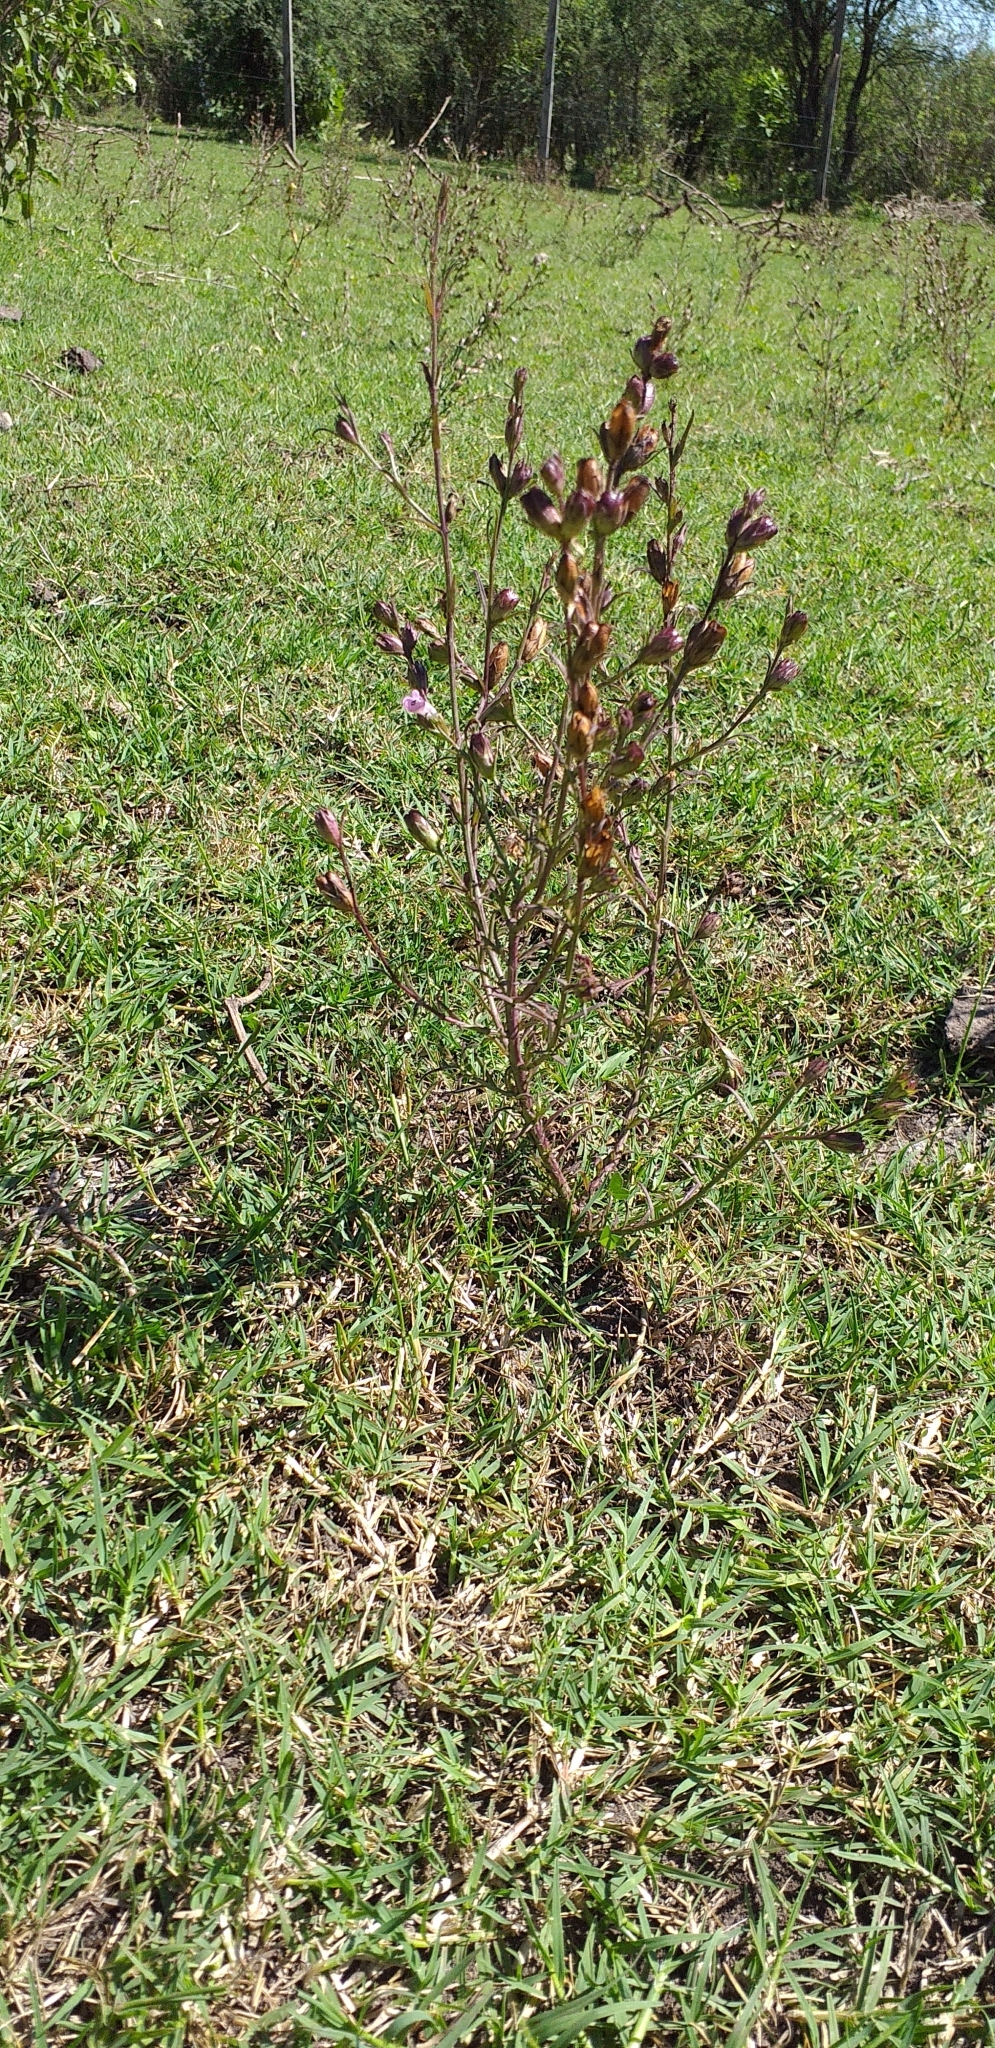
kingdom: Plantae
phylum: Tracheophyta
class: Magnoliopsida
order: Lamiales
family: Orobanchaceae
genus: Agalinis
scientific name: Agalinis communis
